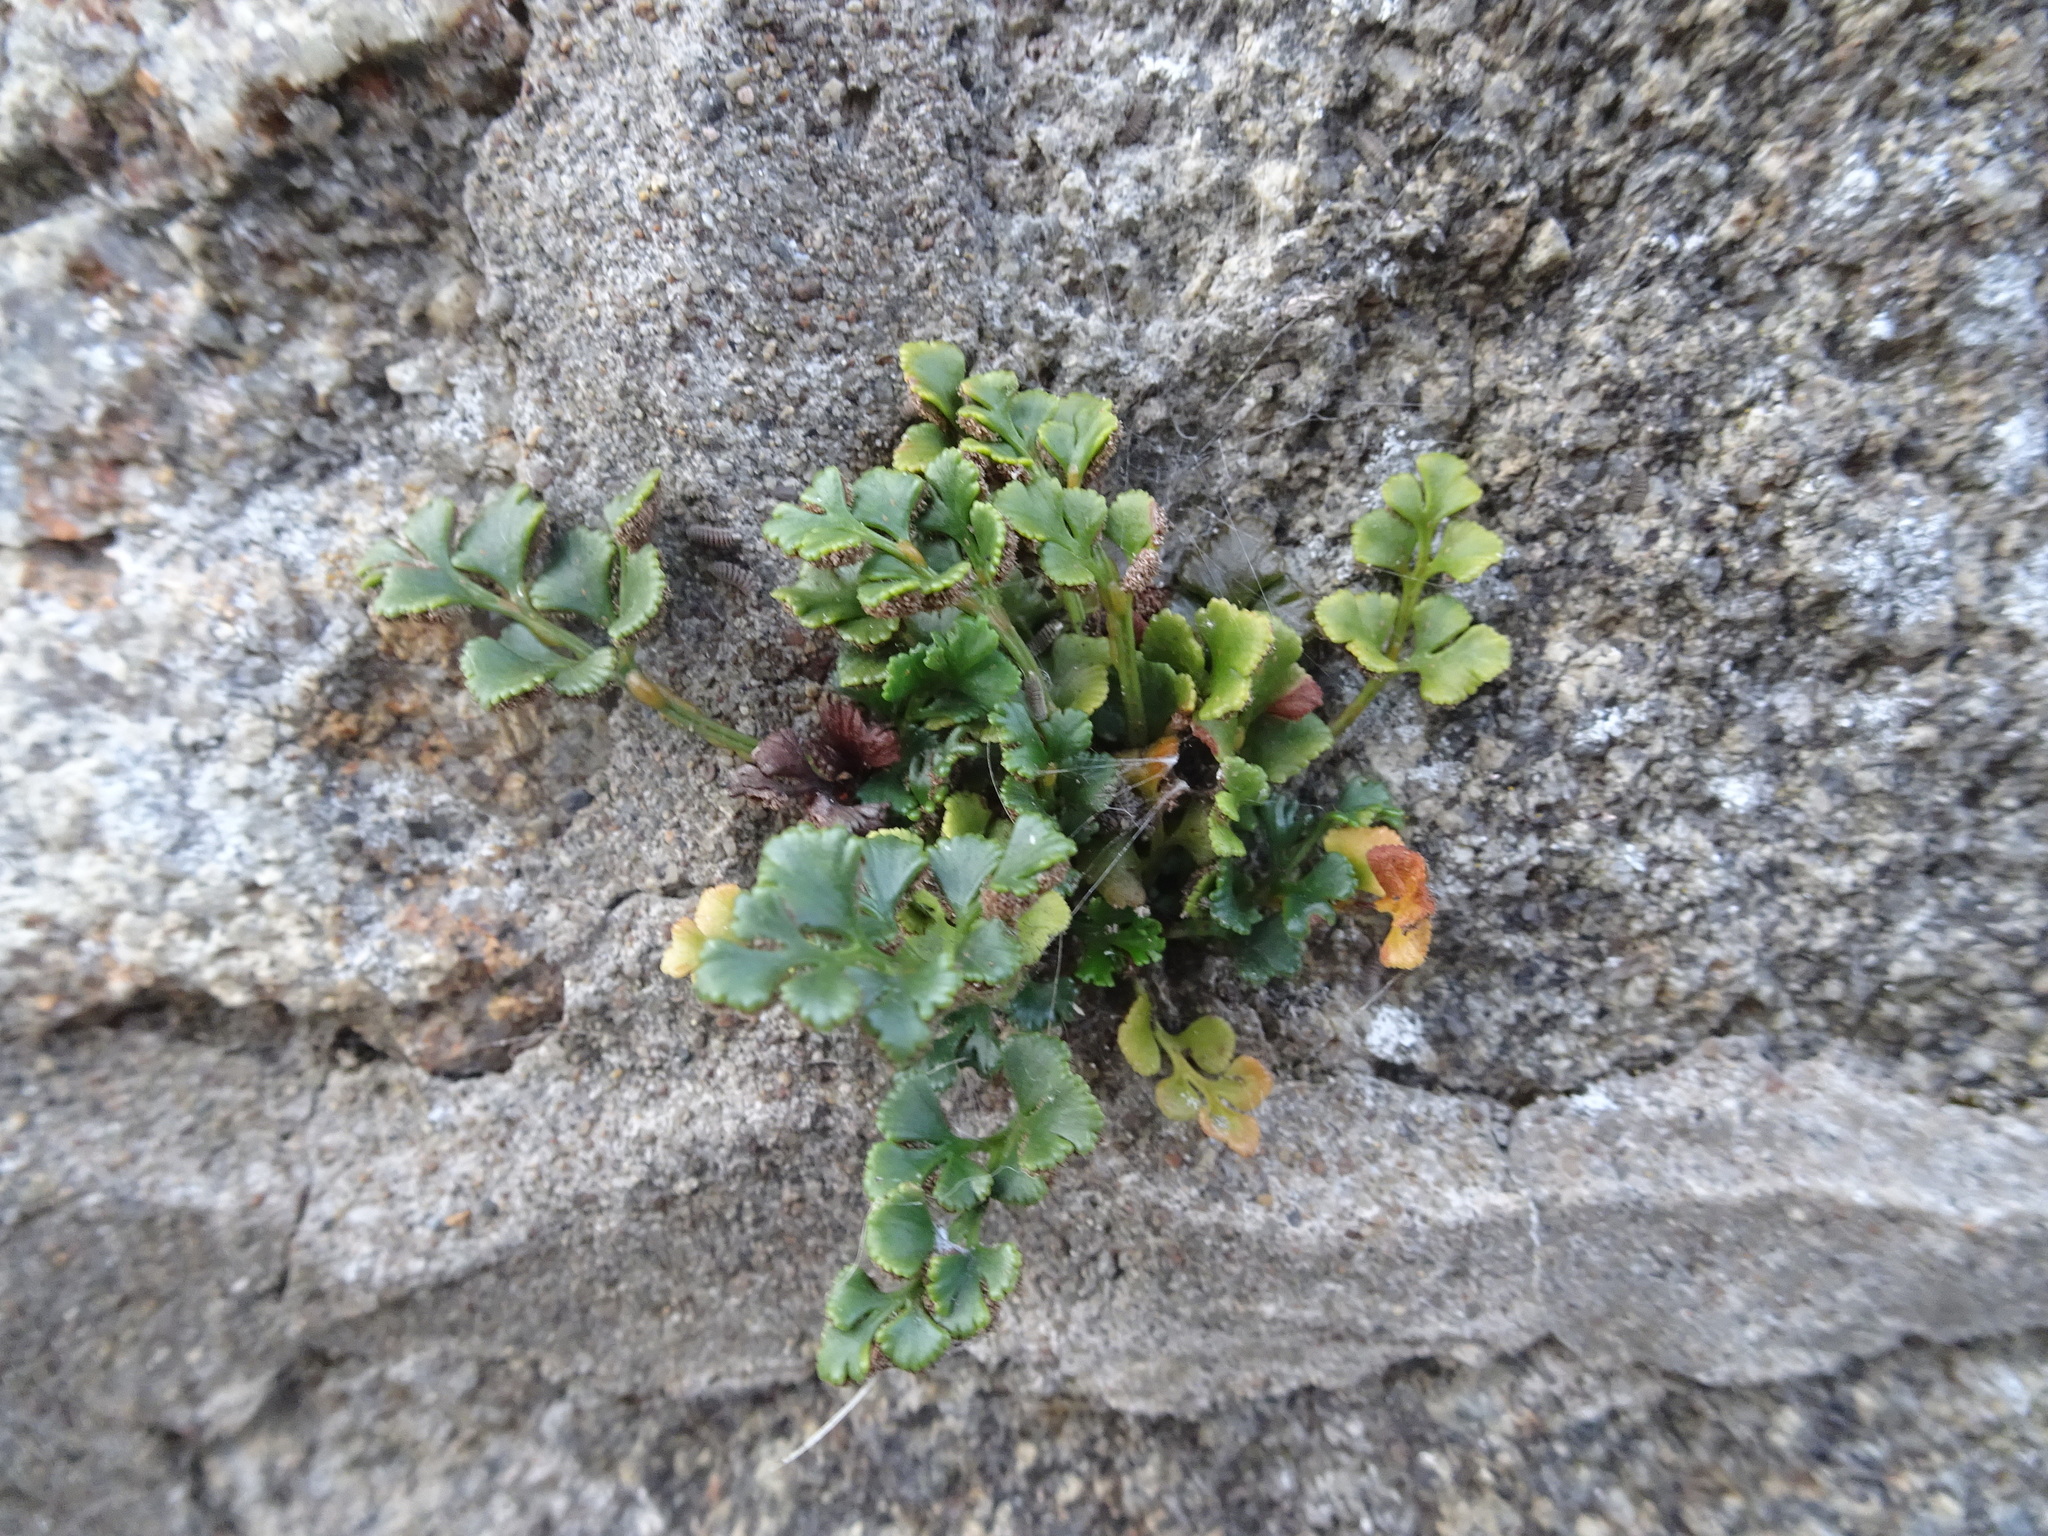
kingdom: Plantae
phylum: Tracheophyta
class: Polypodiopsida
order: Polypodiales
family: Aspleniaceae
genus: Asplenium
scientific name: Asplenium ruta-muraria
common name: Wall-rue
